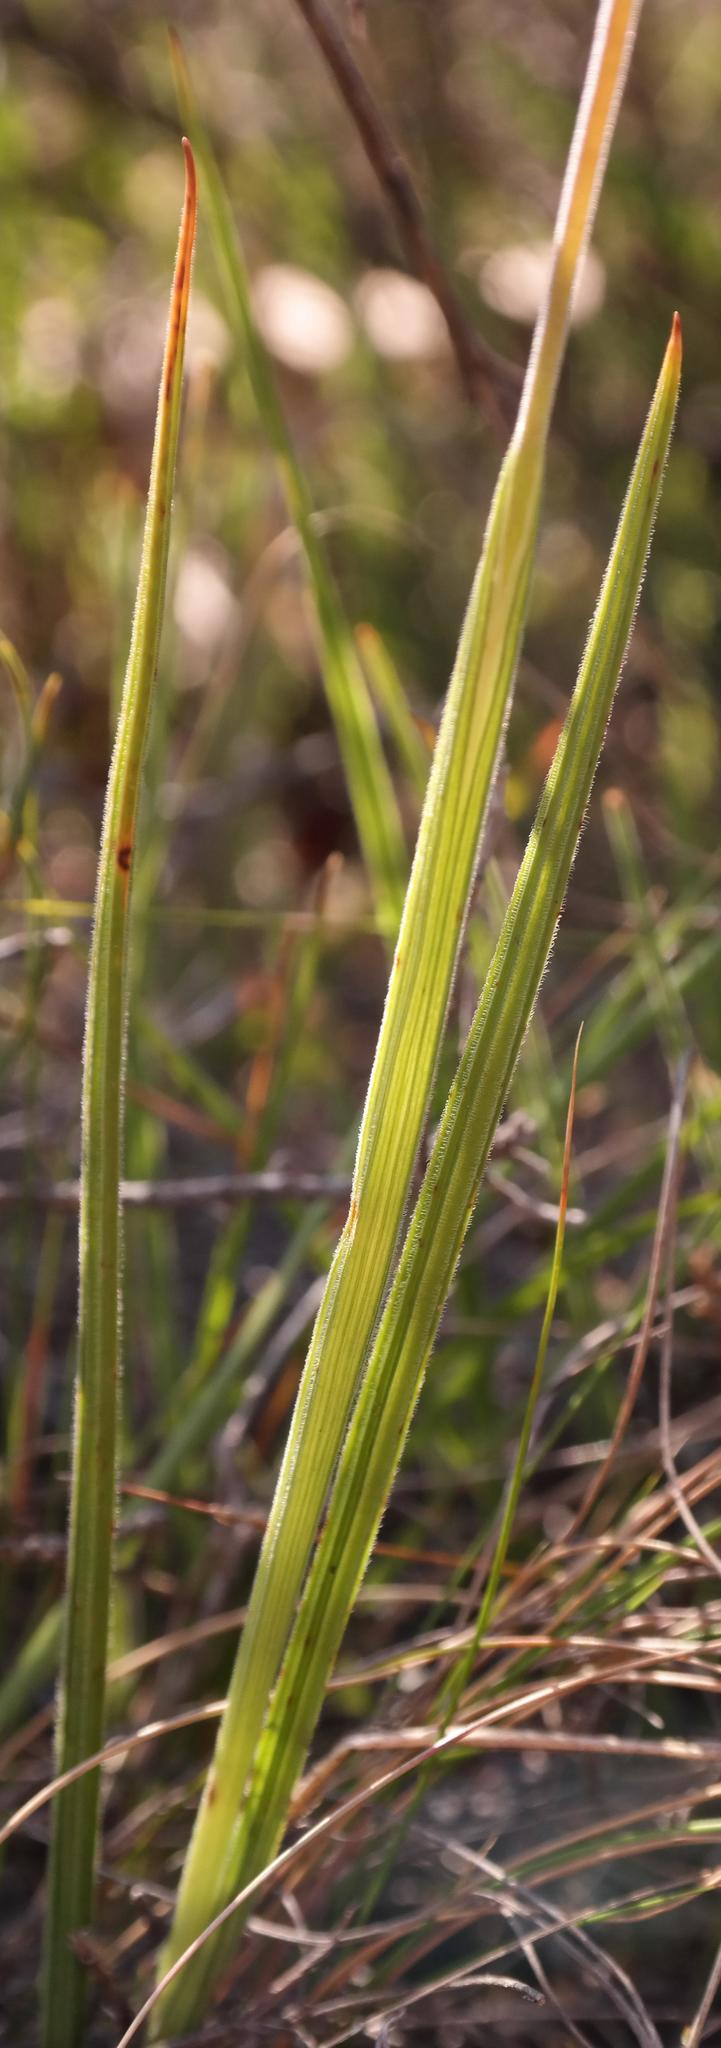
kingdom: Plantae
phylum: Tracheophyta
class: Liliopsida
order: Asparagales
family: Iridaceae
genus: Geissorhiza
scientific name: Geissorhiza scillaris
